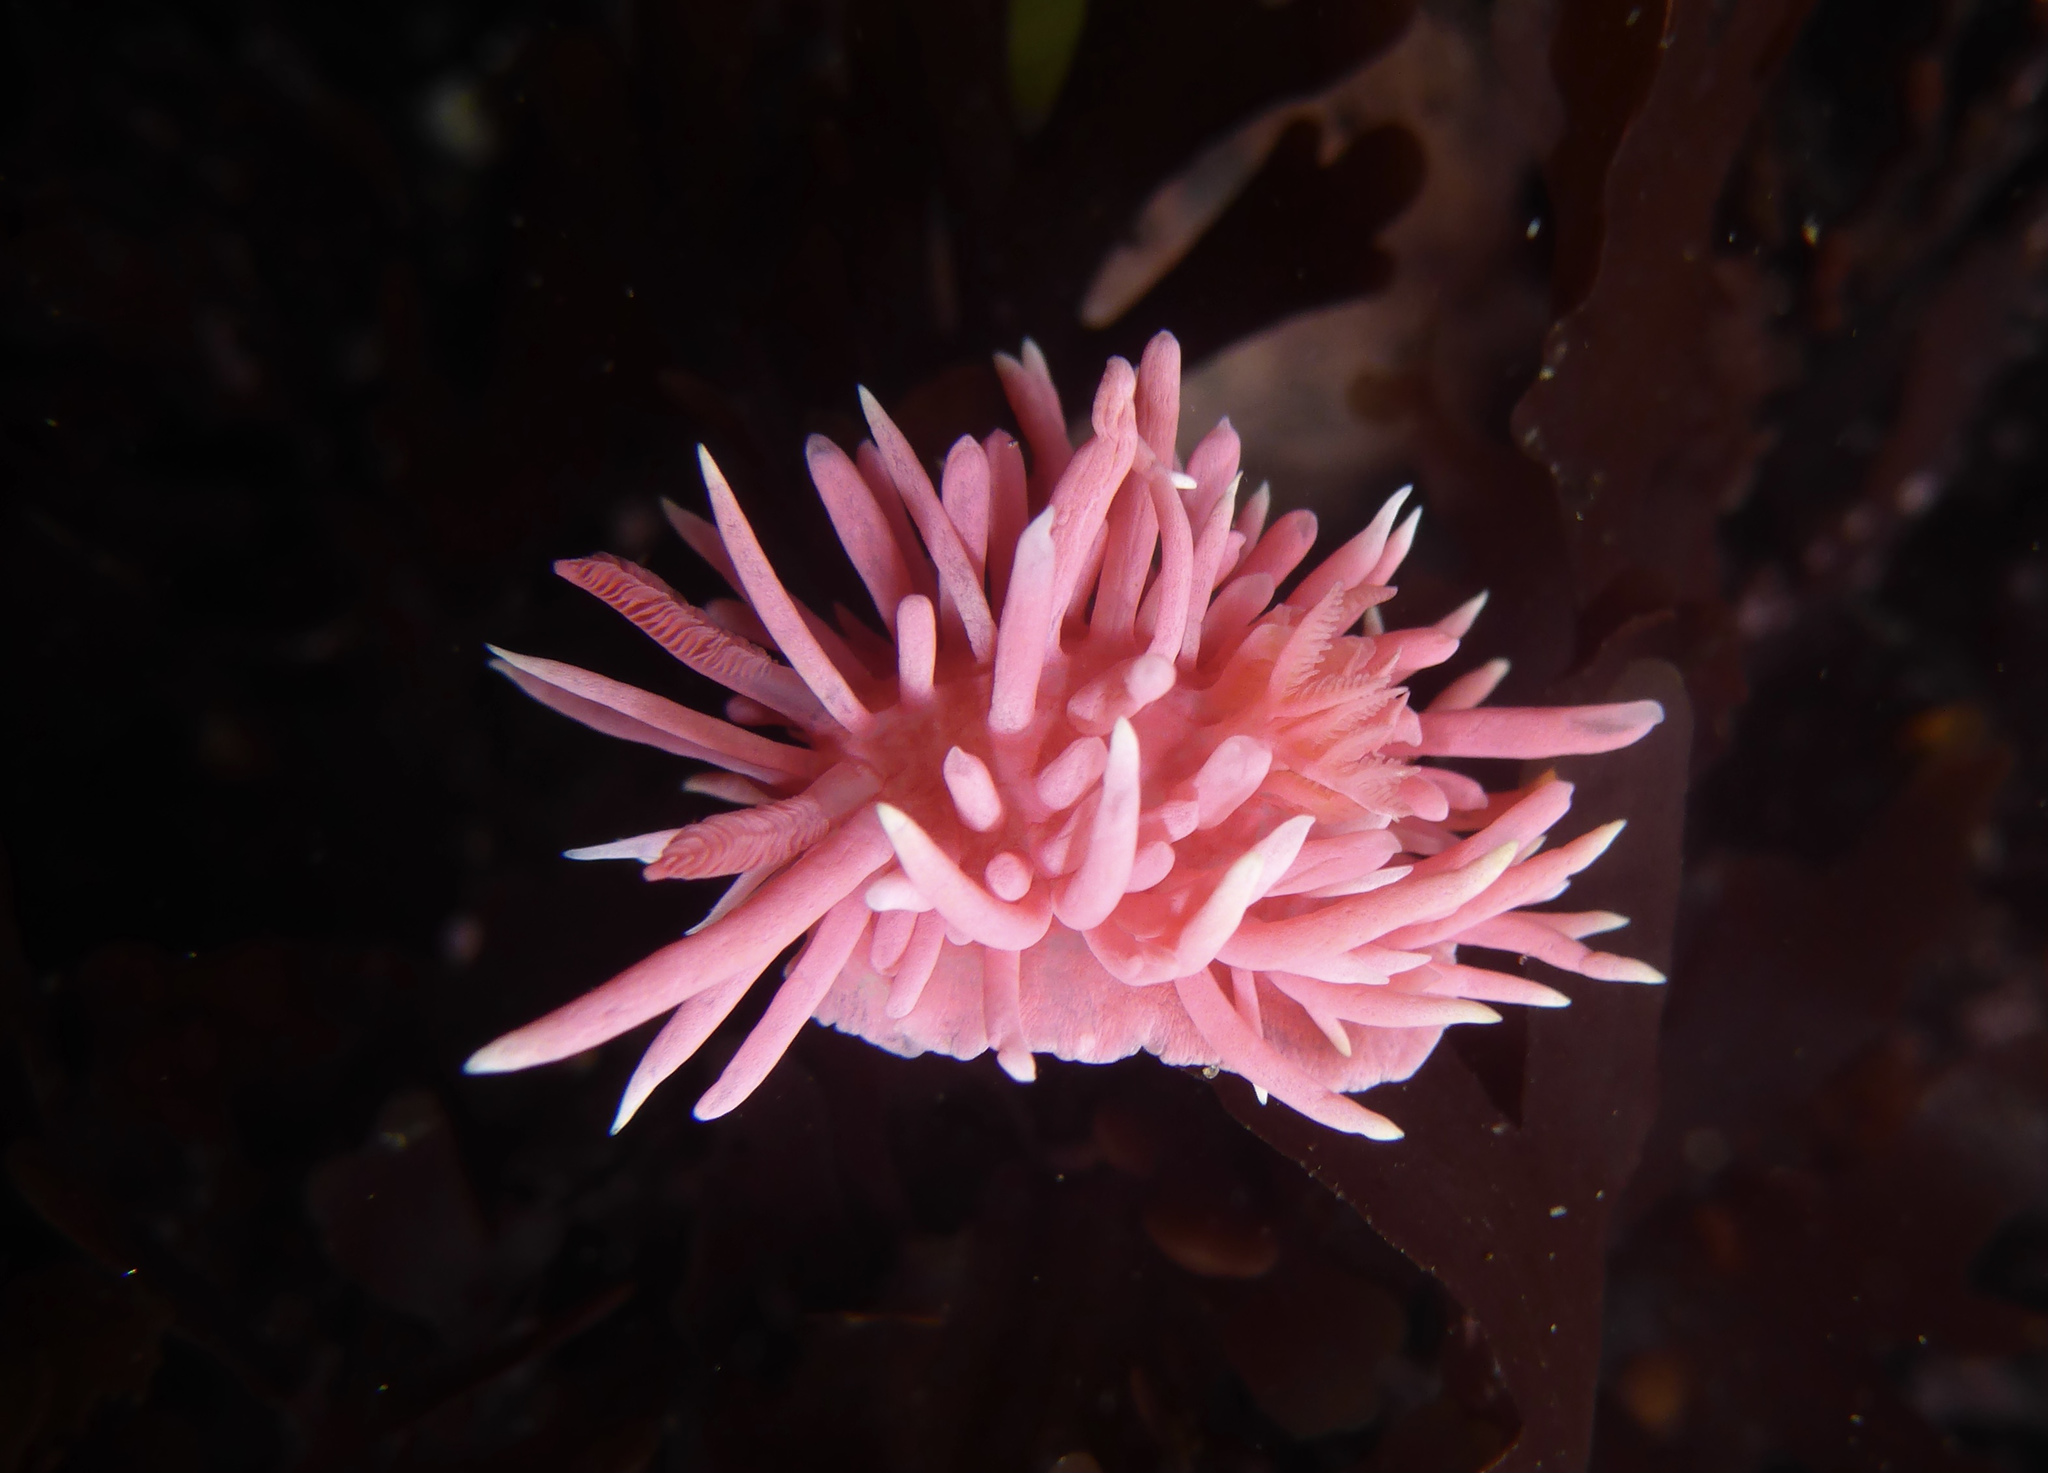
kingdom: Animalia
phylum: Mollusca
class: Gastropoda
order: Nudibranchia
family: Goniodorididae
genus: Okenia
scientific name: Okenia
